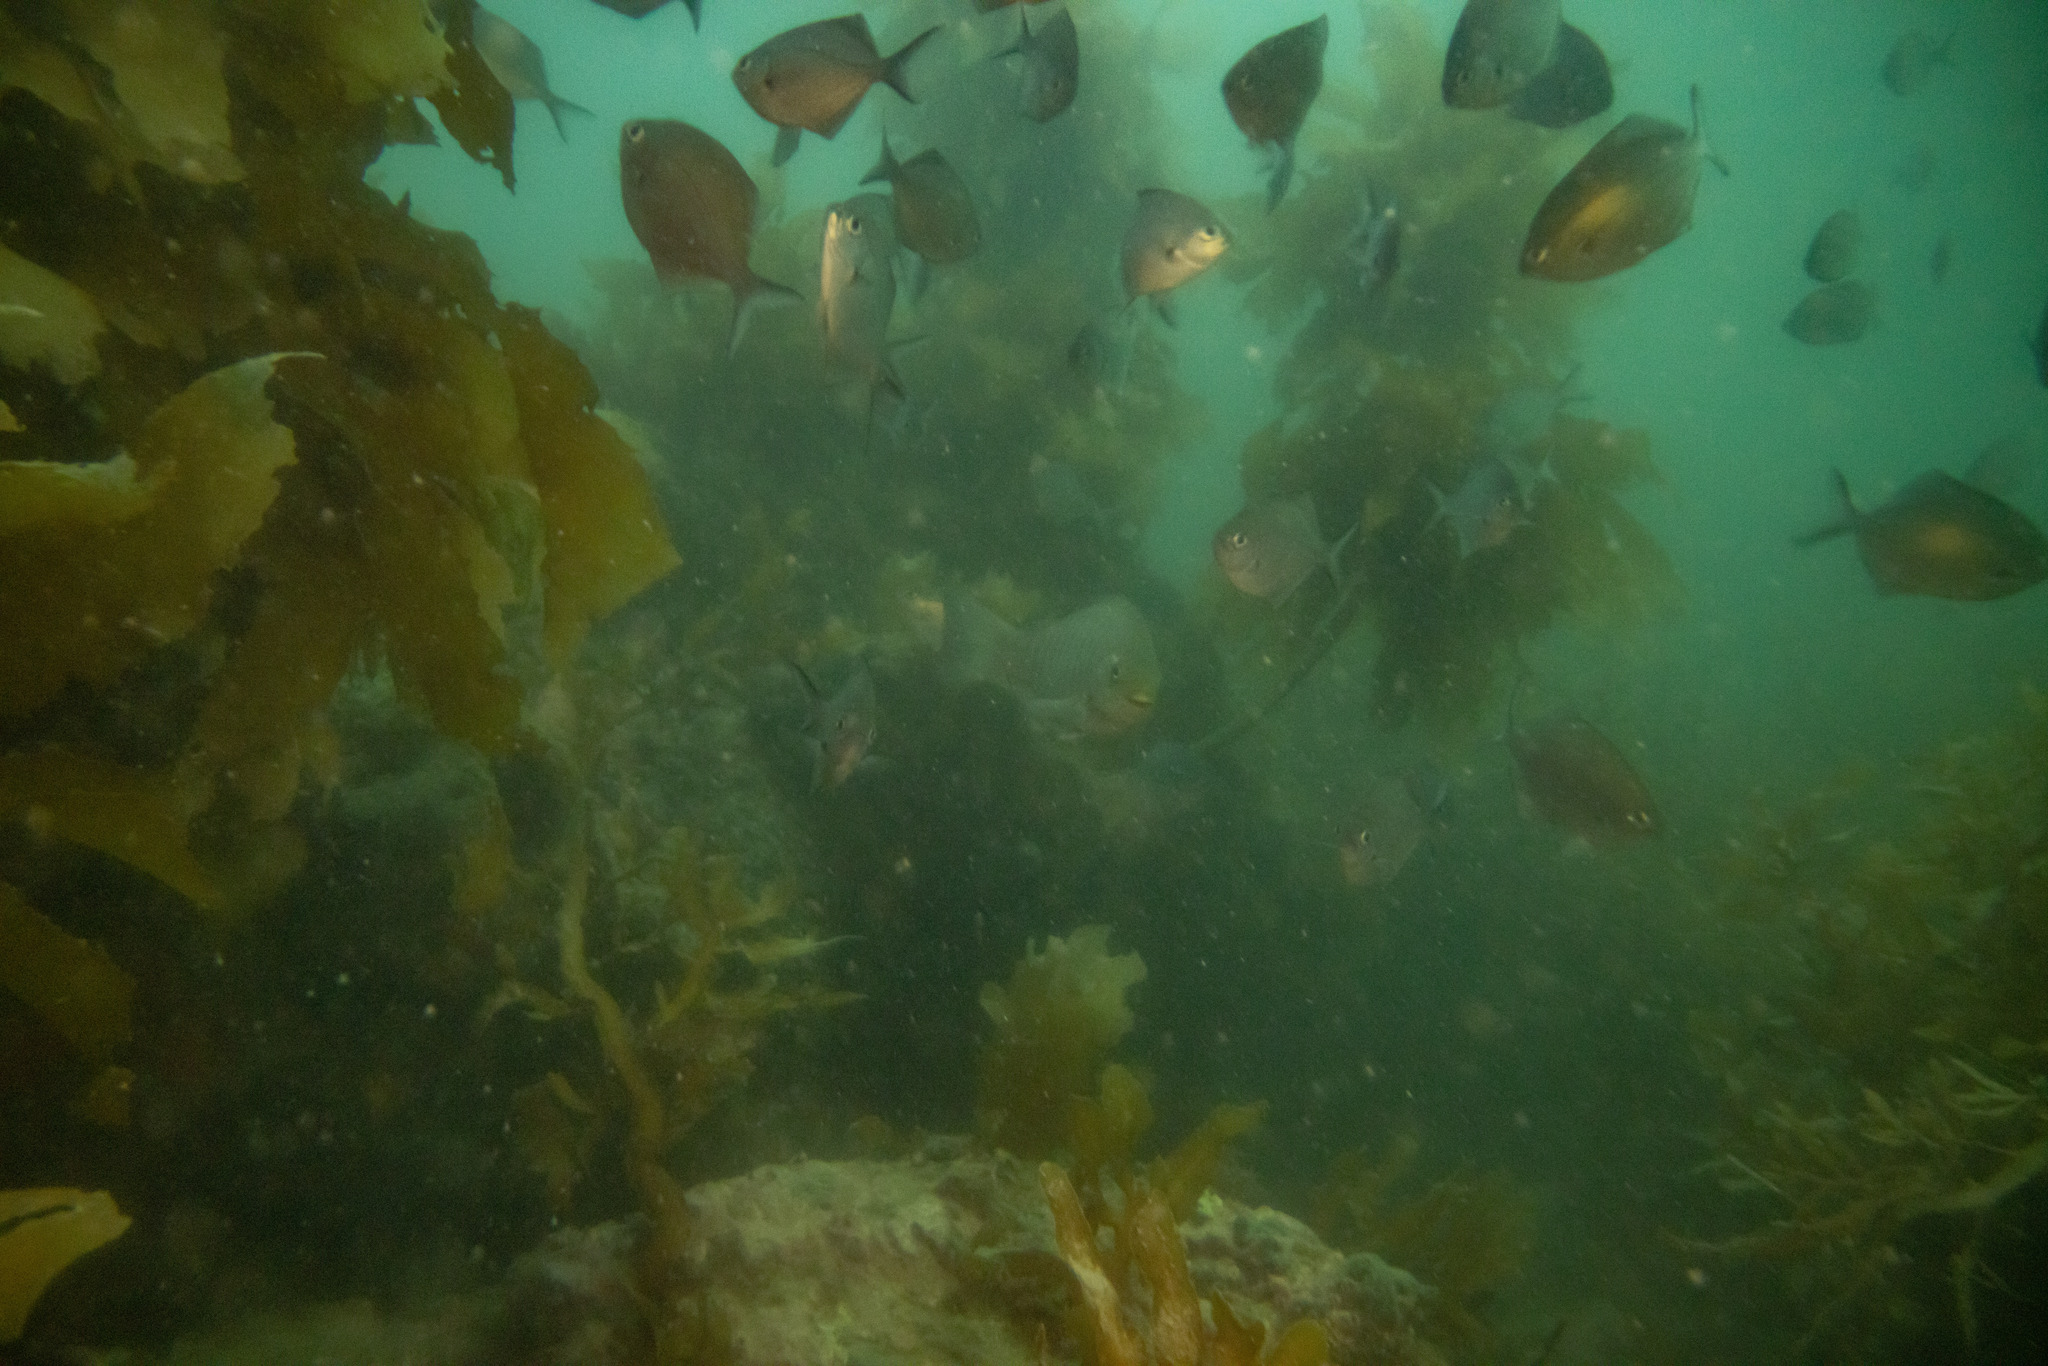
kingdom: Animalia
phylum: Chordata
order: Perciformes
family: Kyphosidae
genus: Scorpis
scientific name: Scorpis lineolata
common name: Sweep
